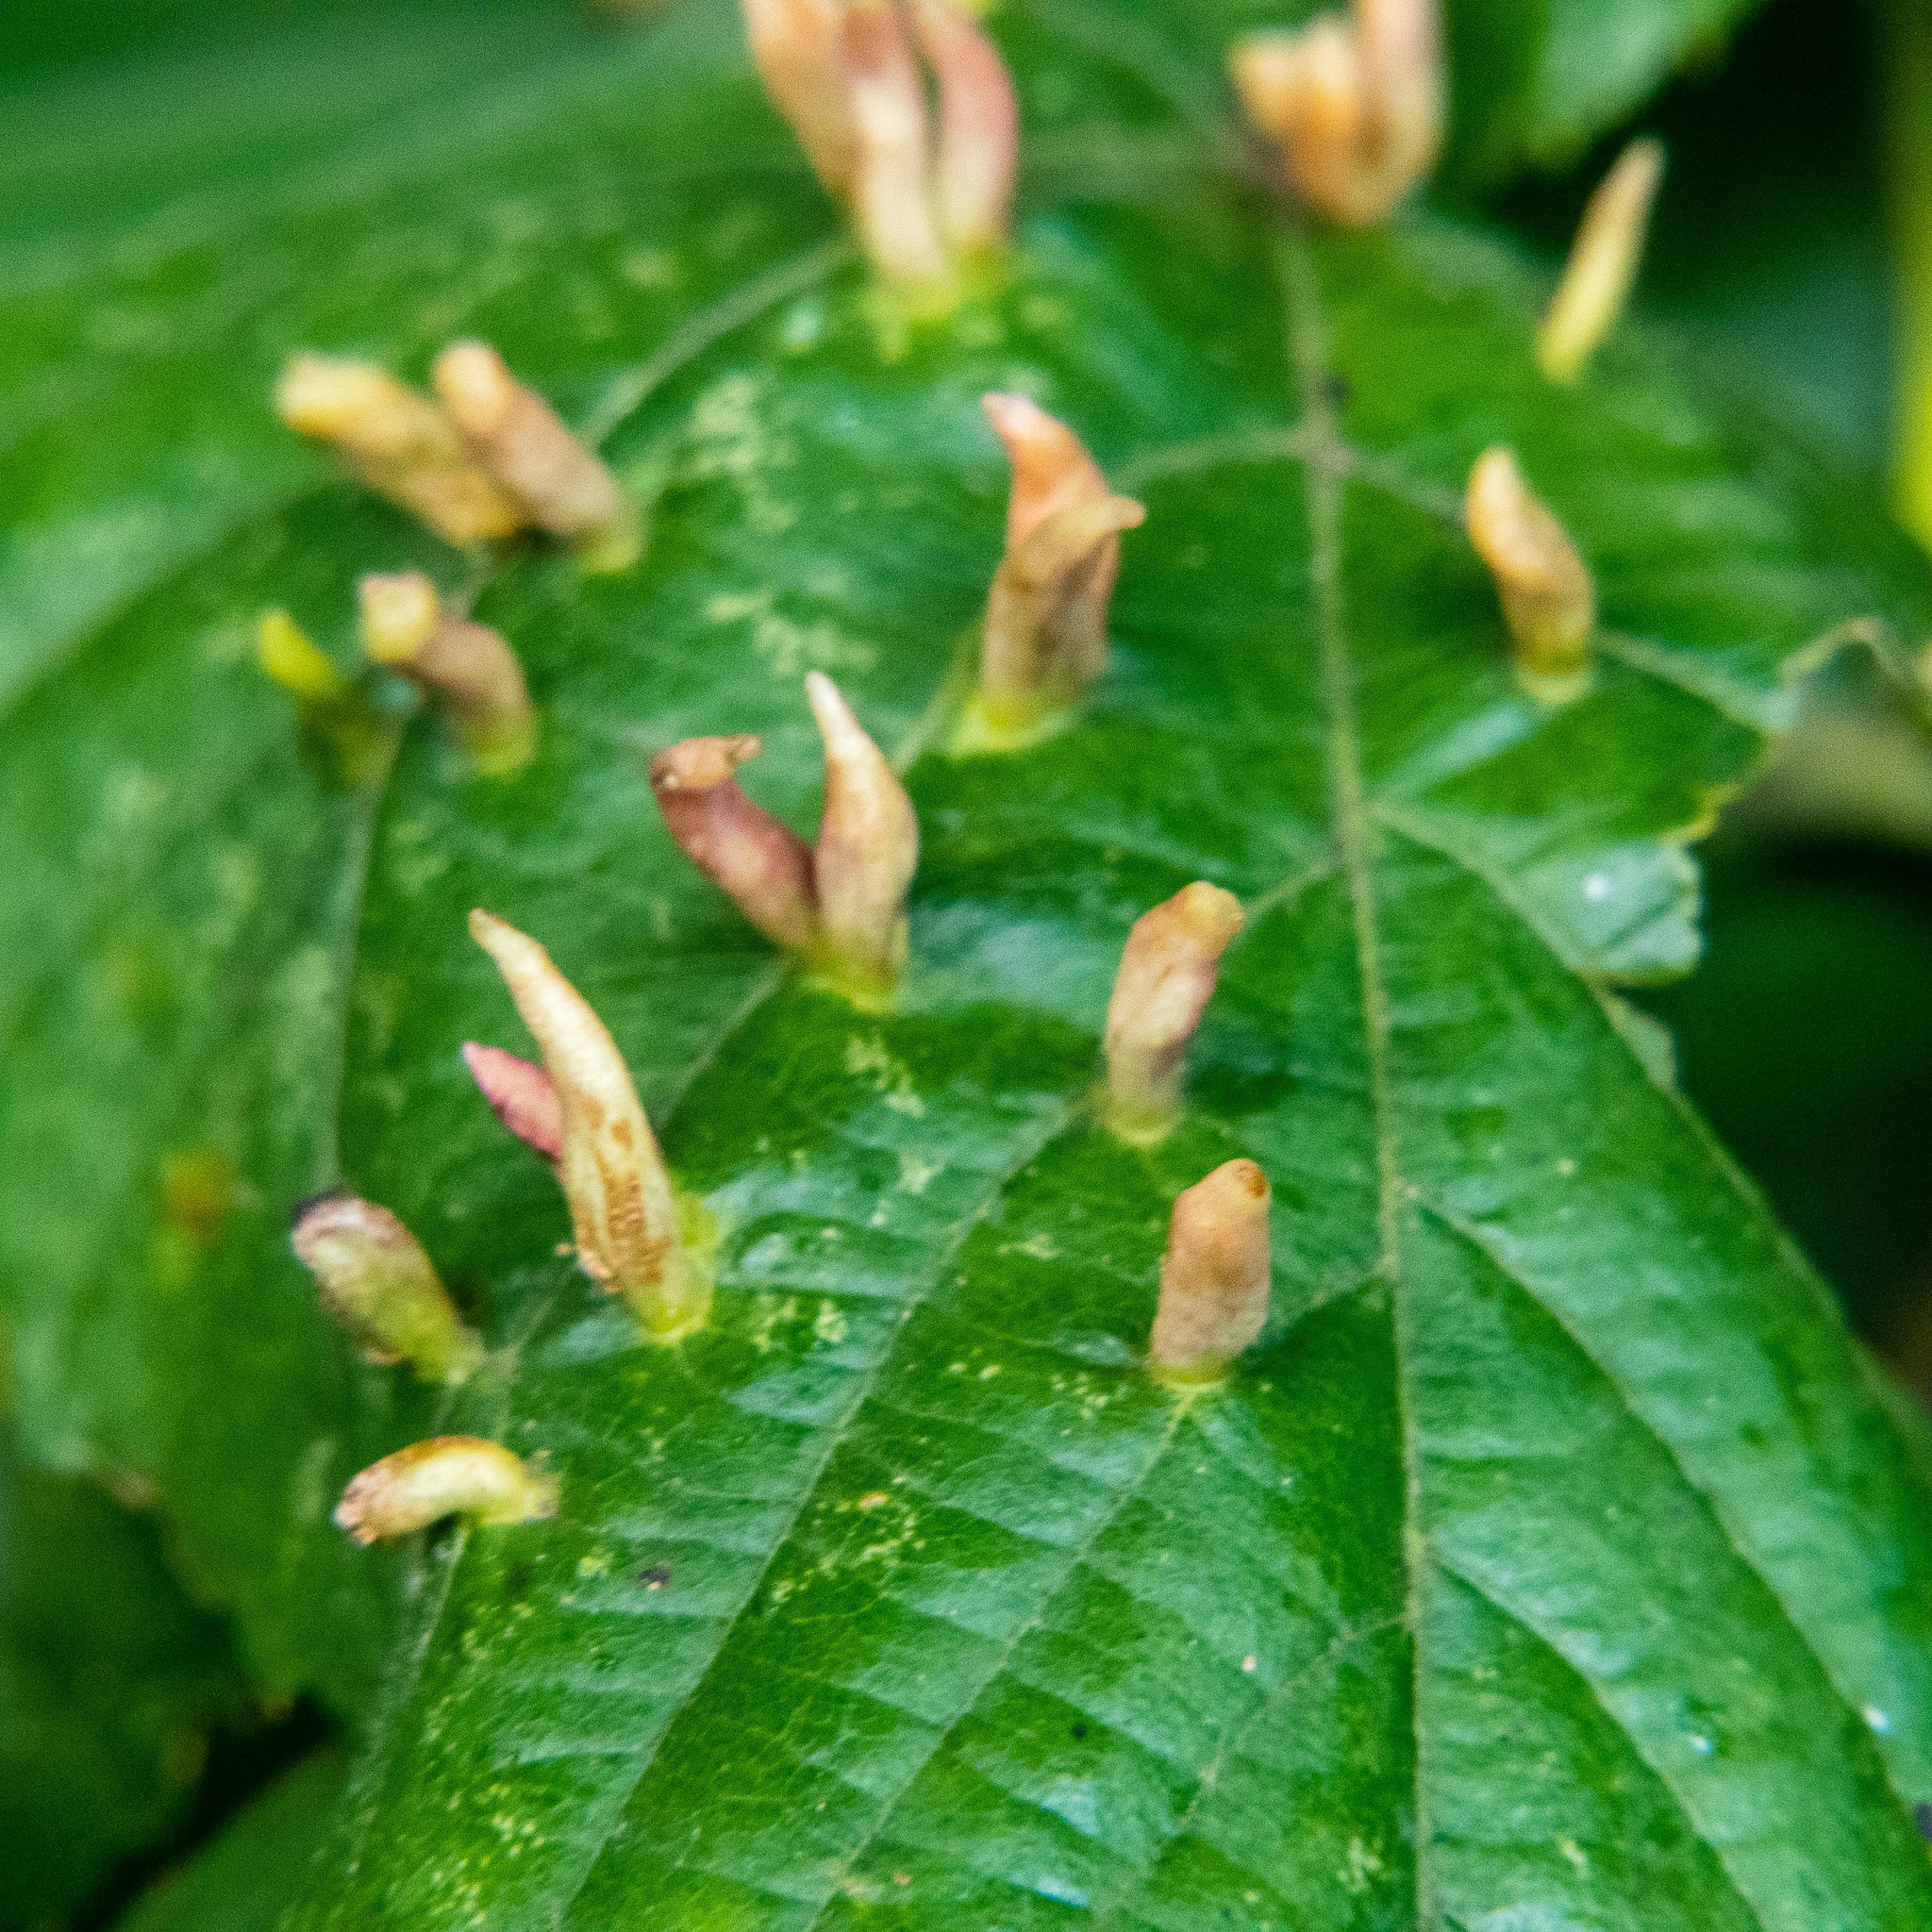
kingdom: Animalia
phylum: Arthropoda
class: Arachnida
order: Trombidiformes
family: Eriophyidae
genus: Eriophyes
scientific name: Eriophyes tiliae
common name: Red nail gall mite
